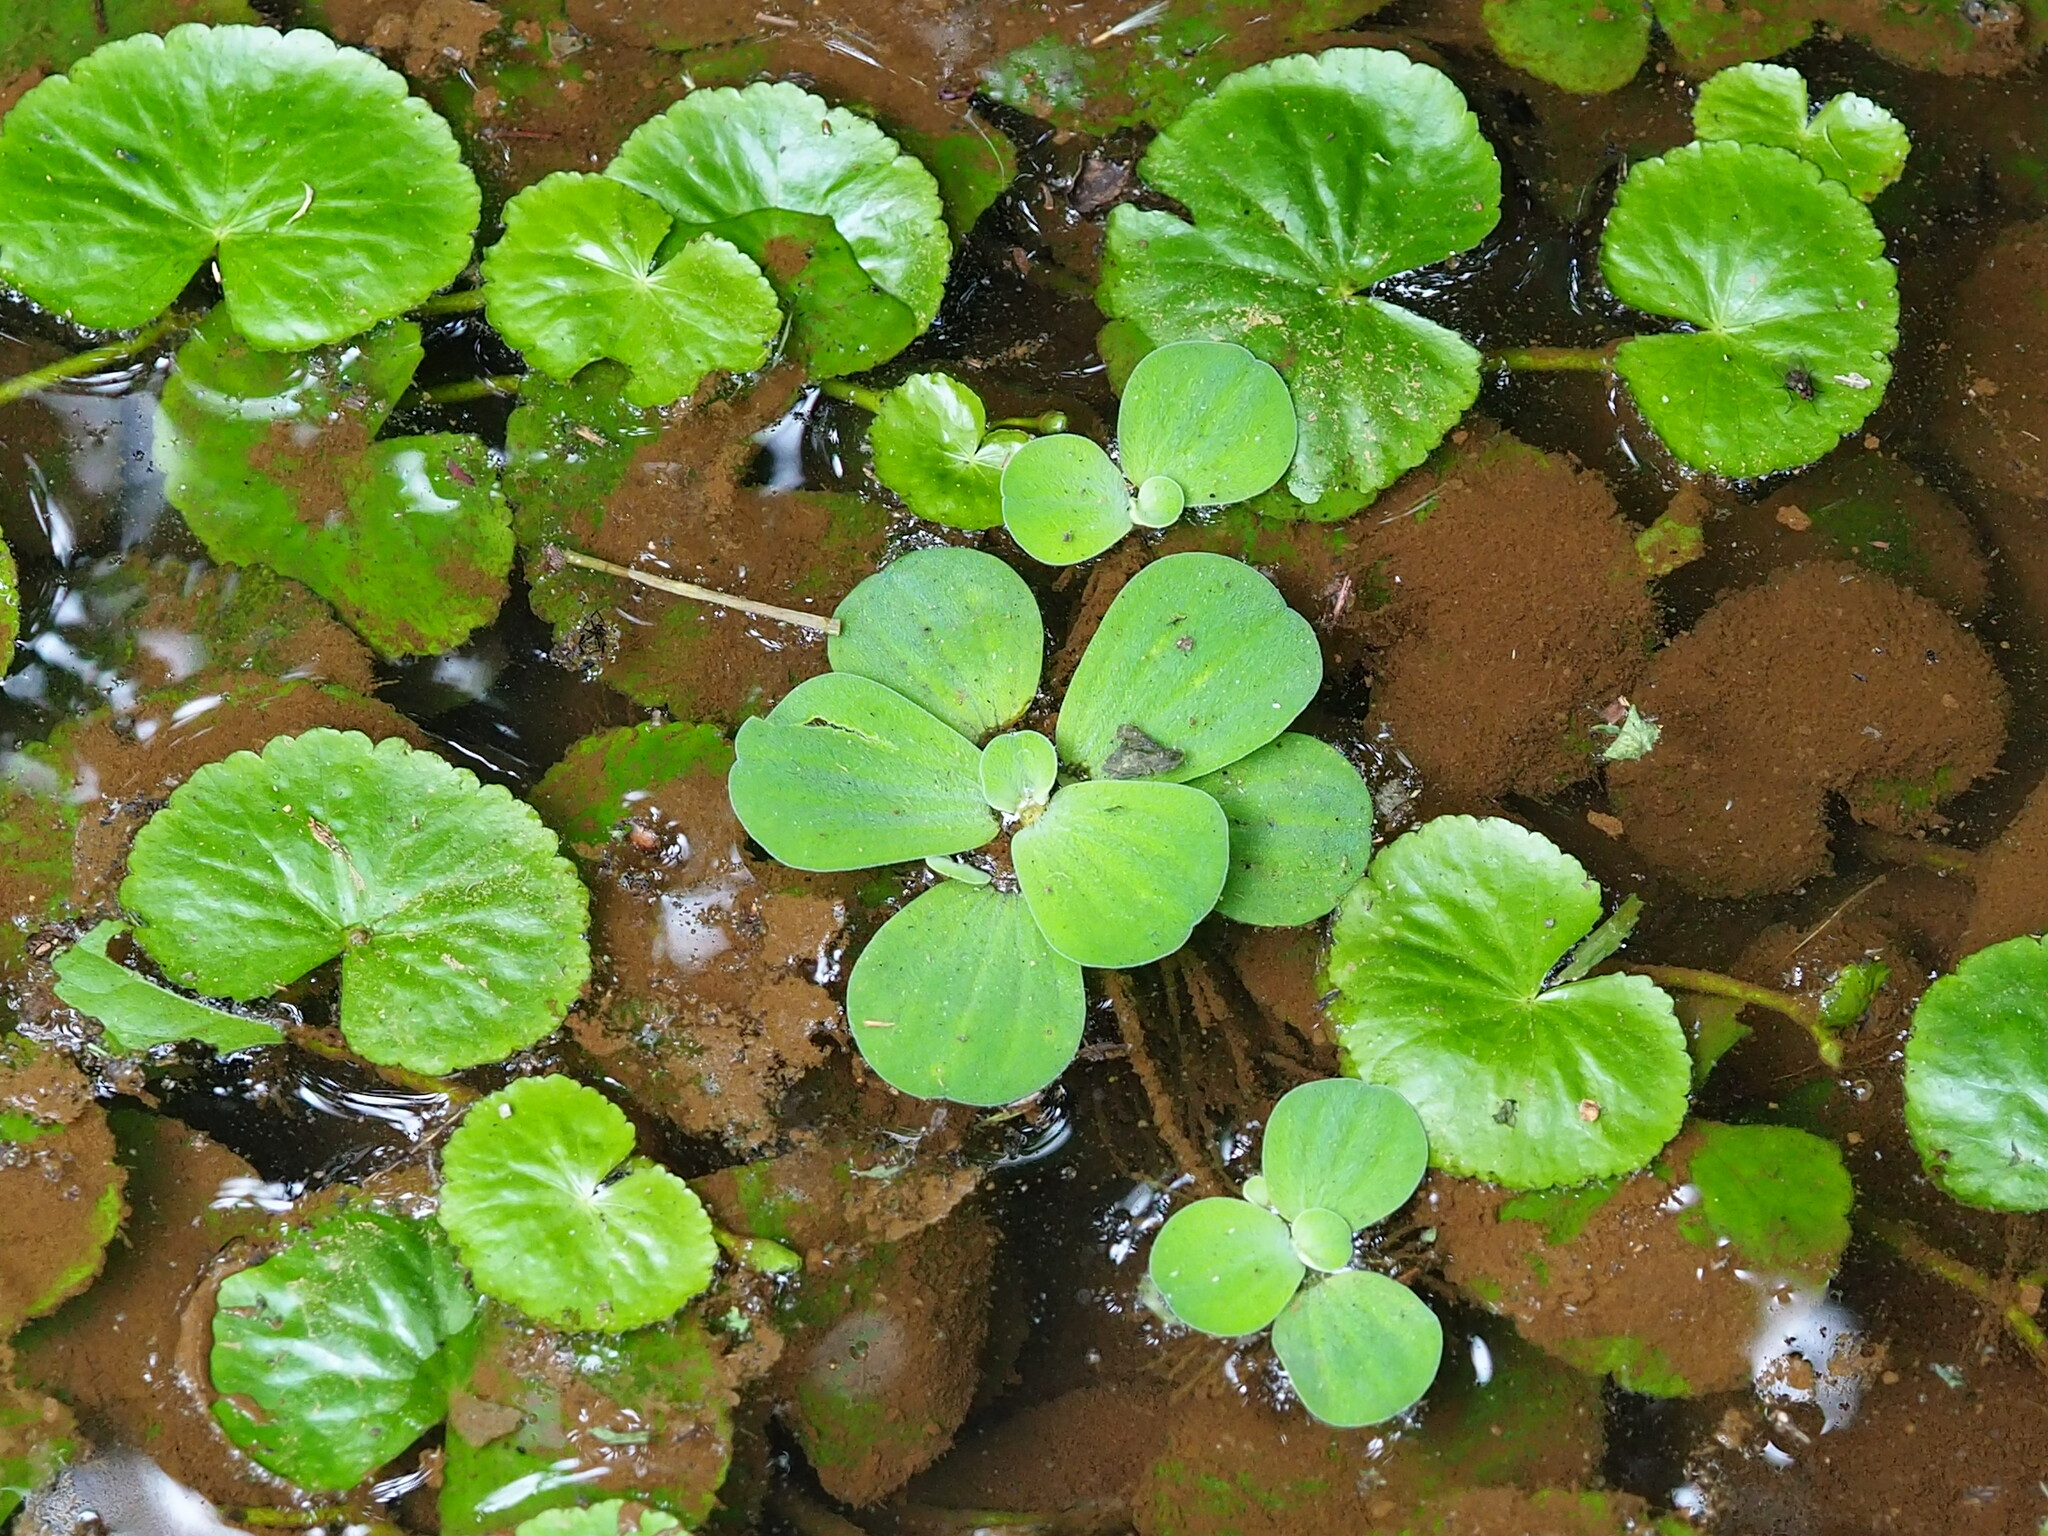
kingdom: Plantae
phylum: Tracheophyta
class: Liliopsida
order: Alismatales
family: Araceae
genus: Pistia
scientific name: Pistia stratiotes
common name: Water lettuce
